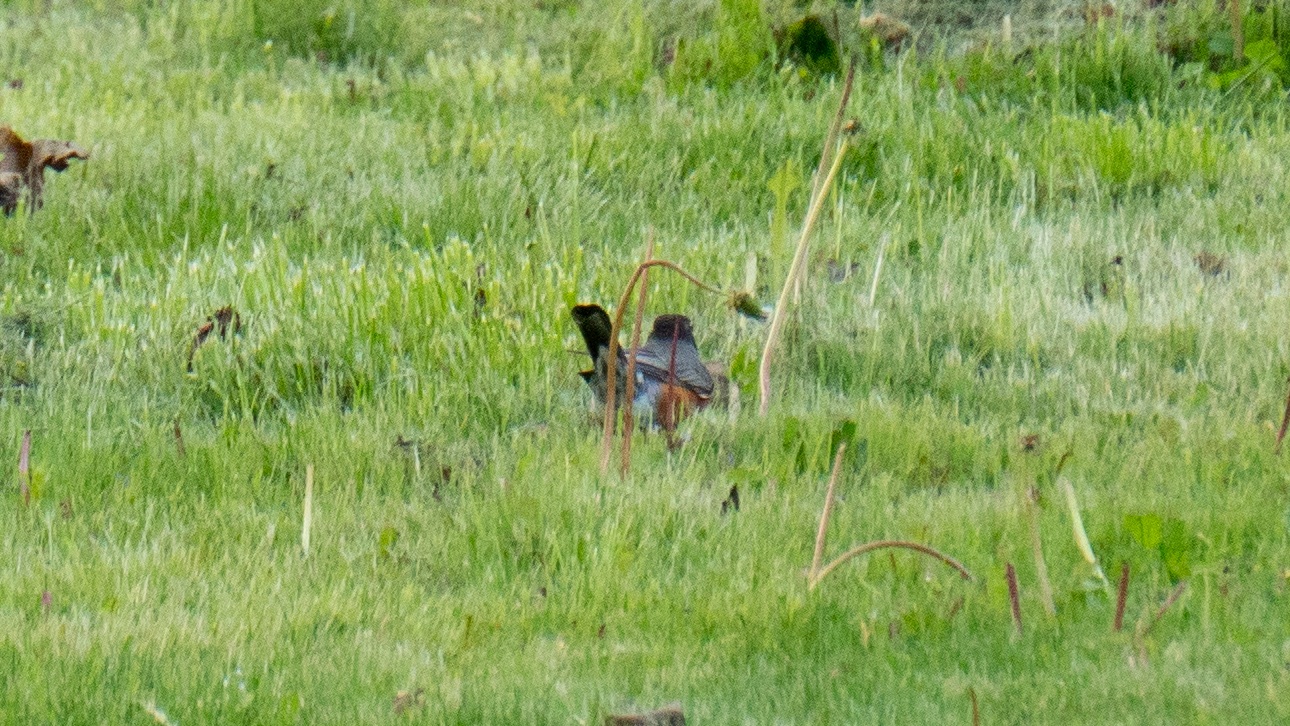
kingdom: Animalia
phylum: Chordata
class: Aves
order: Passeriformes
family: Turdidae
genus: Turdus
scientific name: Turdus migratorius
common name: American robin
